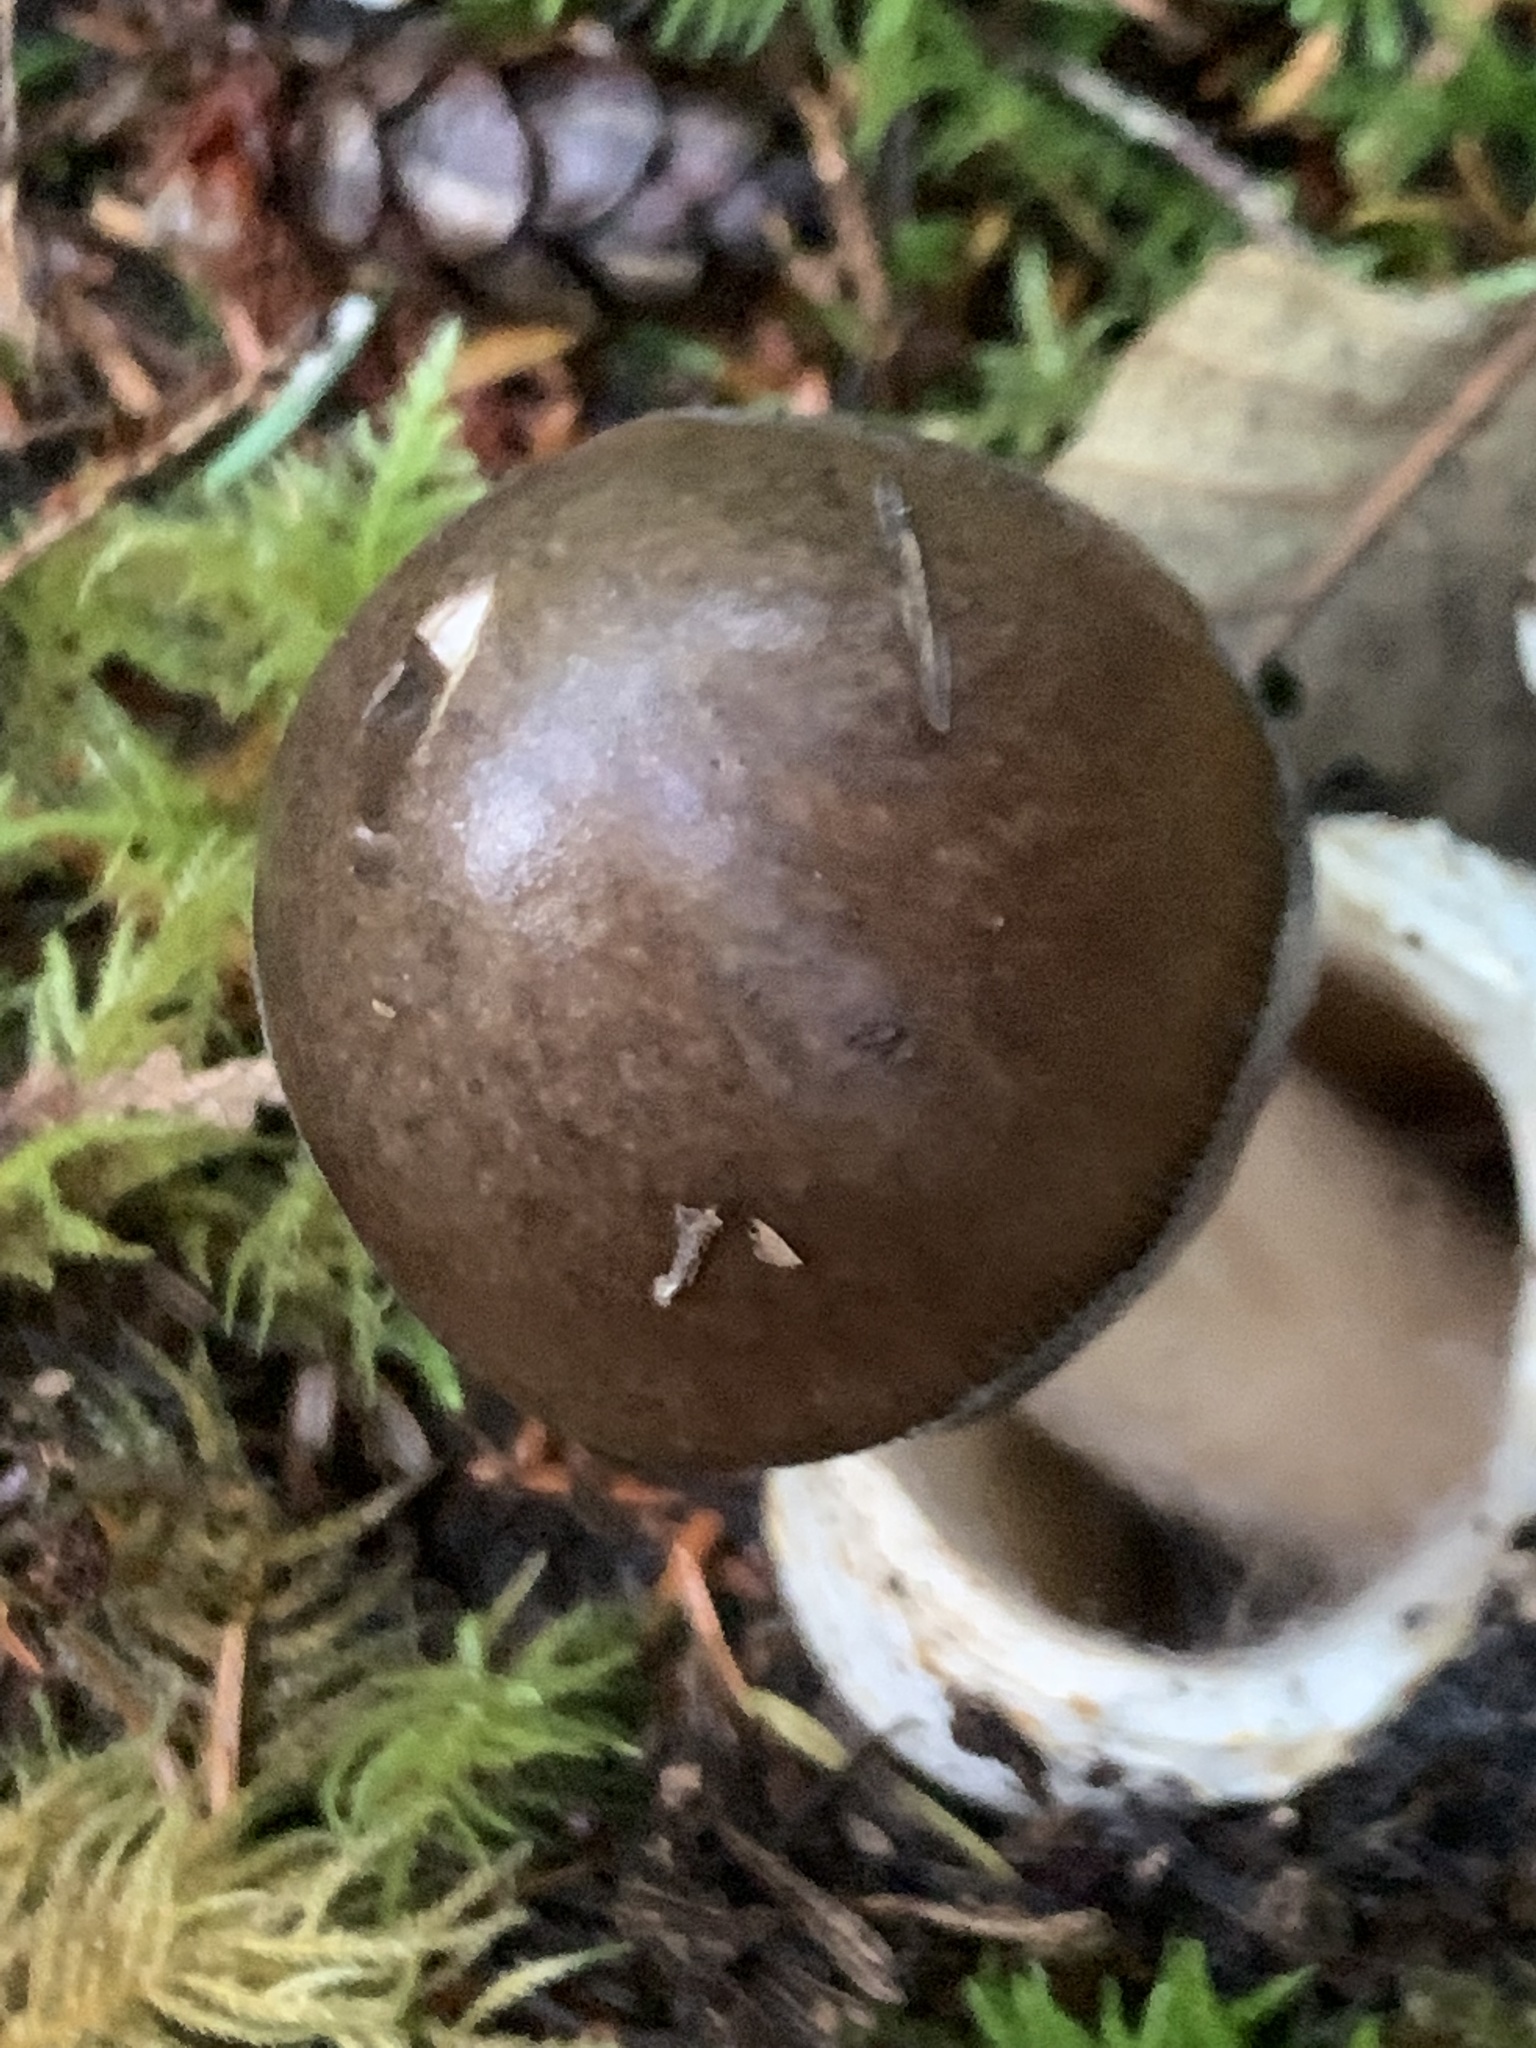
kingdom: Fungi
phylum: Basidiomycota
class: Agaricomycetes
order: Agaricales
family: Amanitaceae
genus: Amanita
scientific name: Amanita pachycolea
